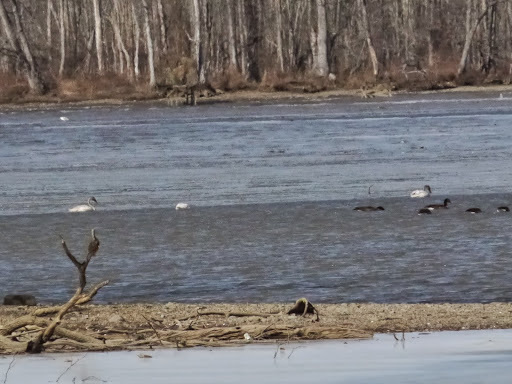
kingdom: Animalia
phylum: Chordata
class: Aves
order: Anseriformes
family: Anatidae
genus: Cygnus
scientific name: Cygnus columbianus
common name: Tundra swan
